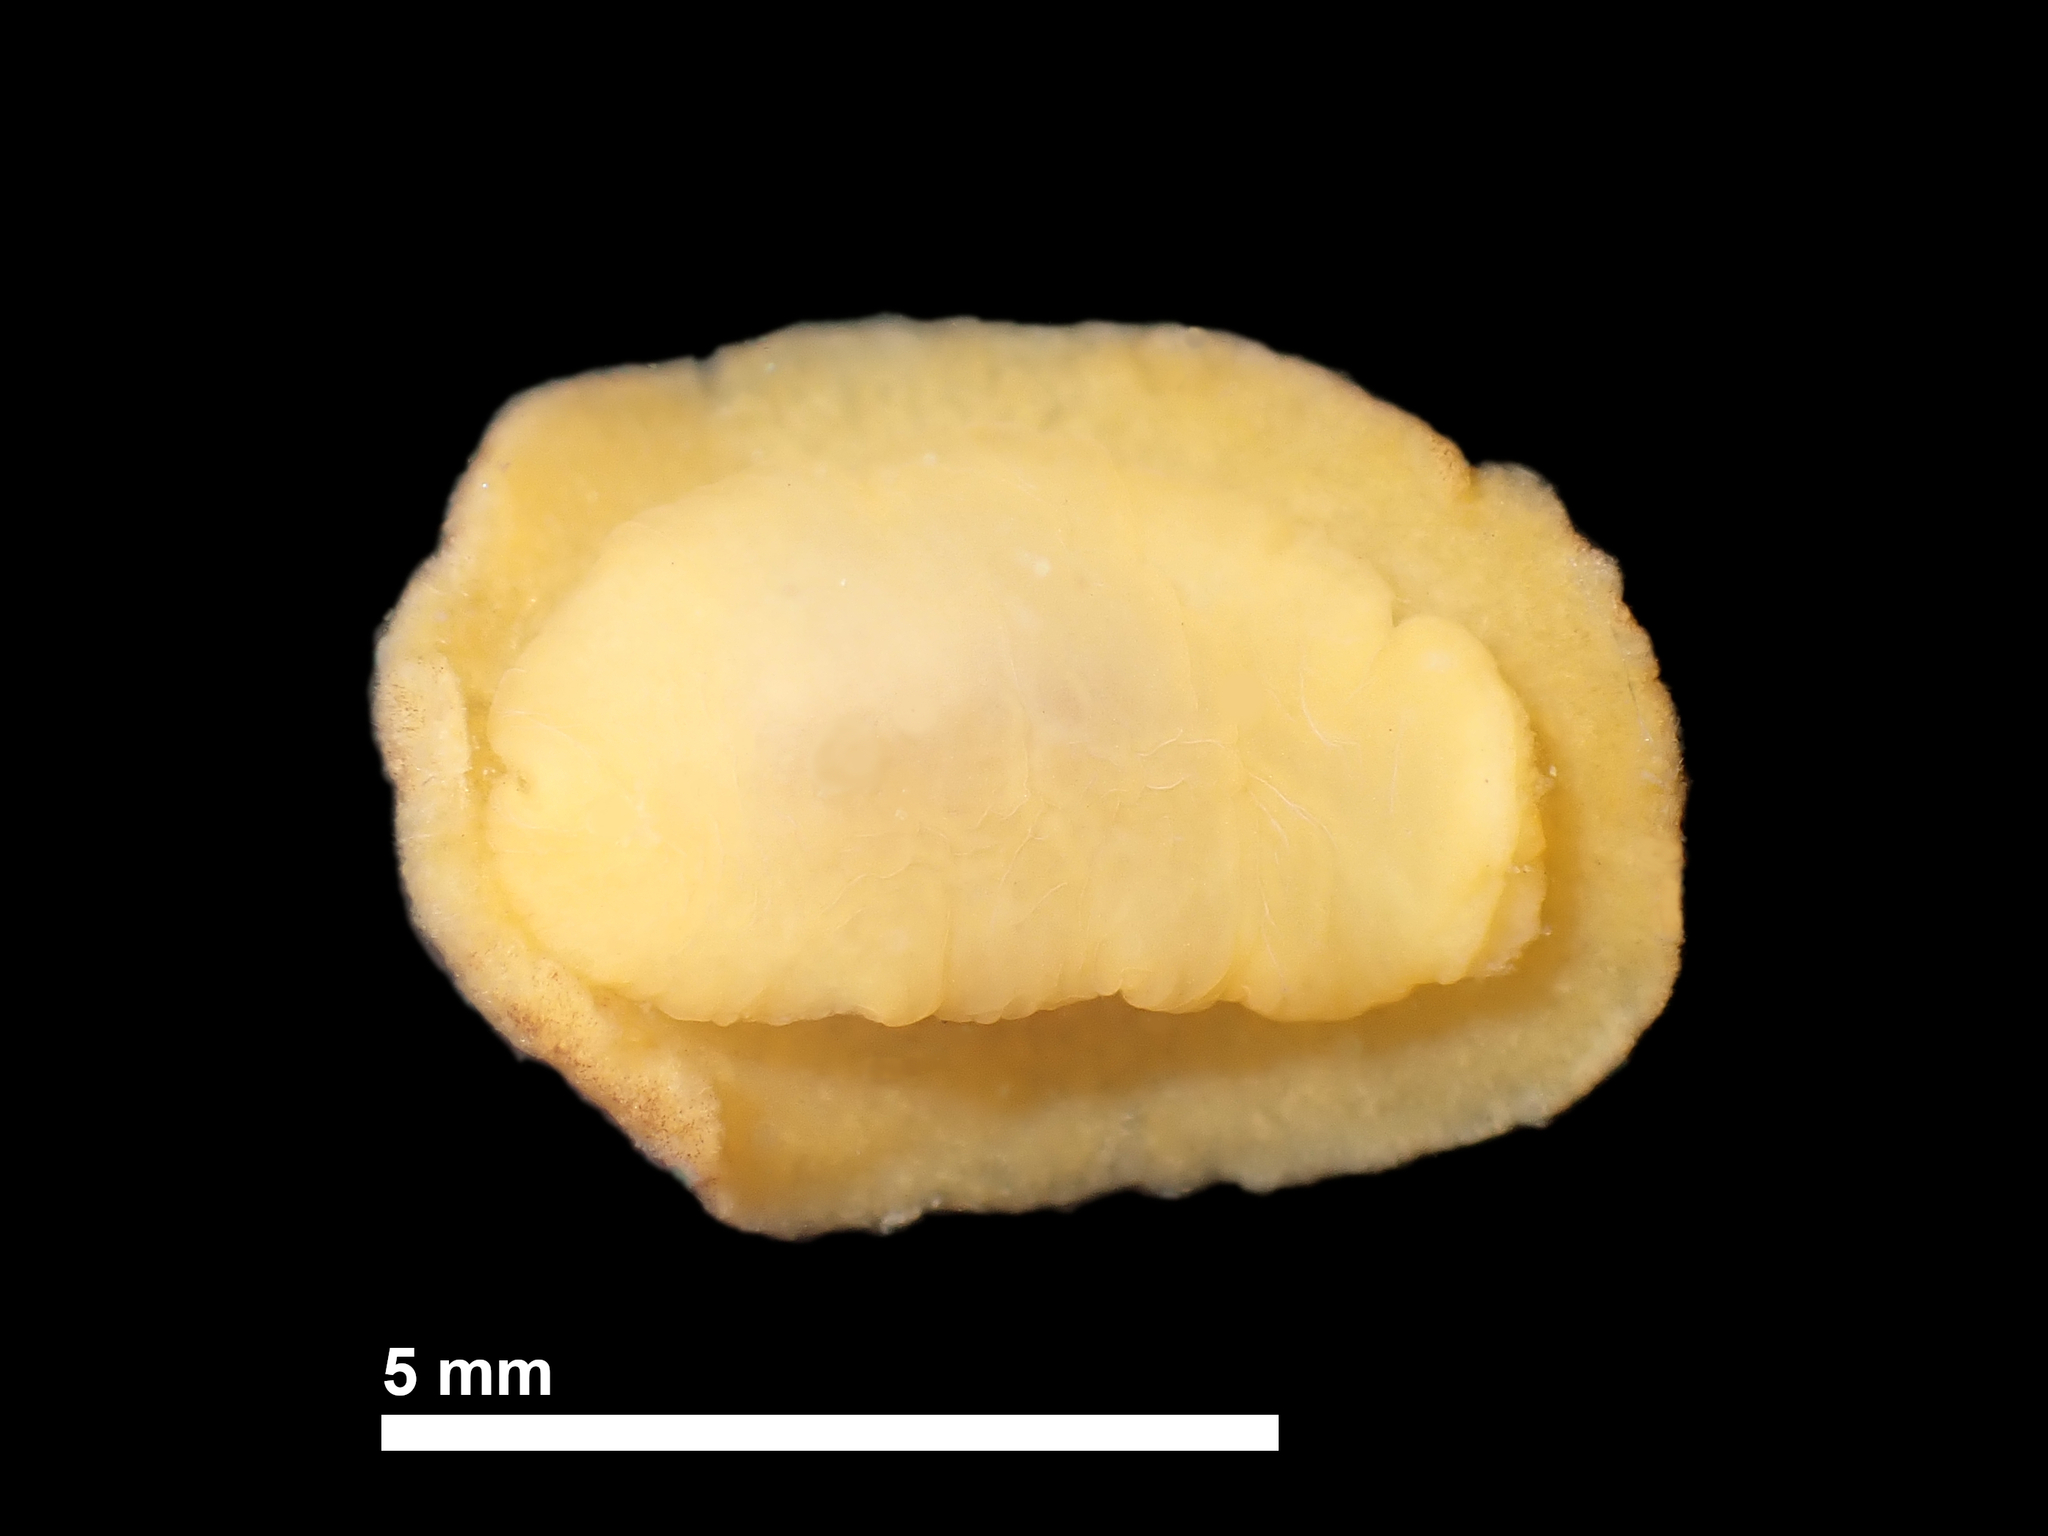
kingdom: Animalia
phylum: Mollusca
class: Gastropoda
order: Nudibranchia
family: Discodorididae
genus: Geitodoris
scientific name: Geitodoris sticta
